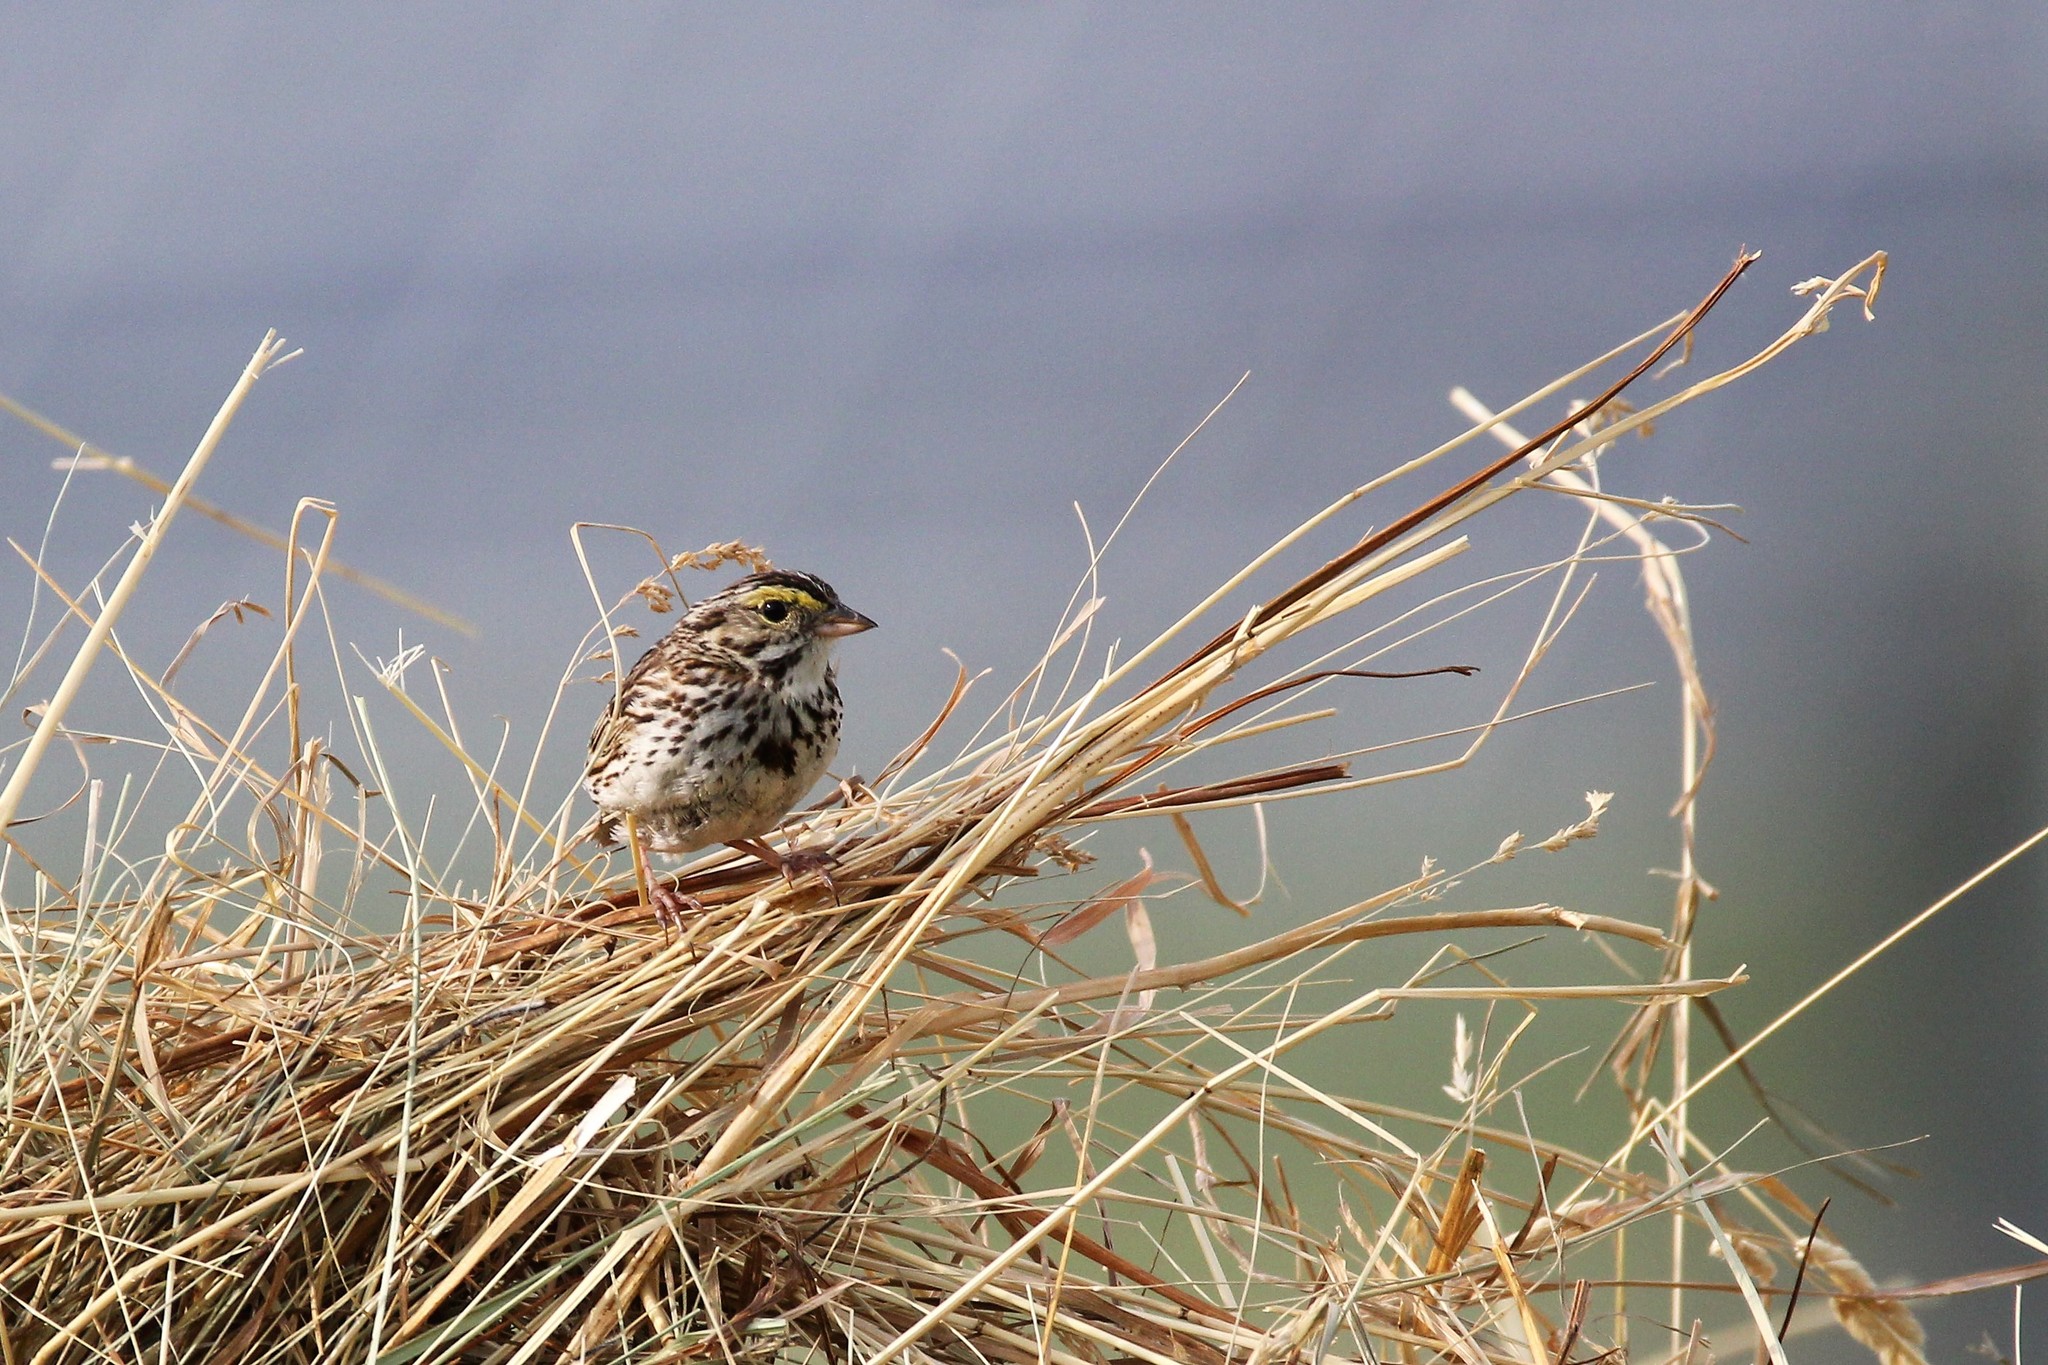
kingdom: Animalia
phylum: Chordata
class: Aves
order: Passeriformes
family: Passerellidae
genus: Passerculus
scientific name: Passerculus sandwichensis
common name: Savannah sparrow
